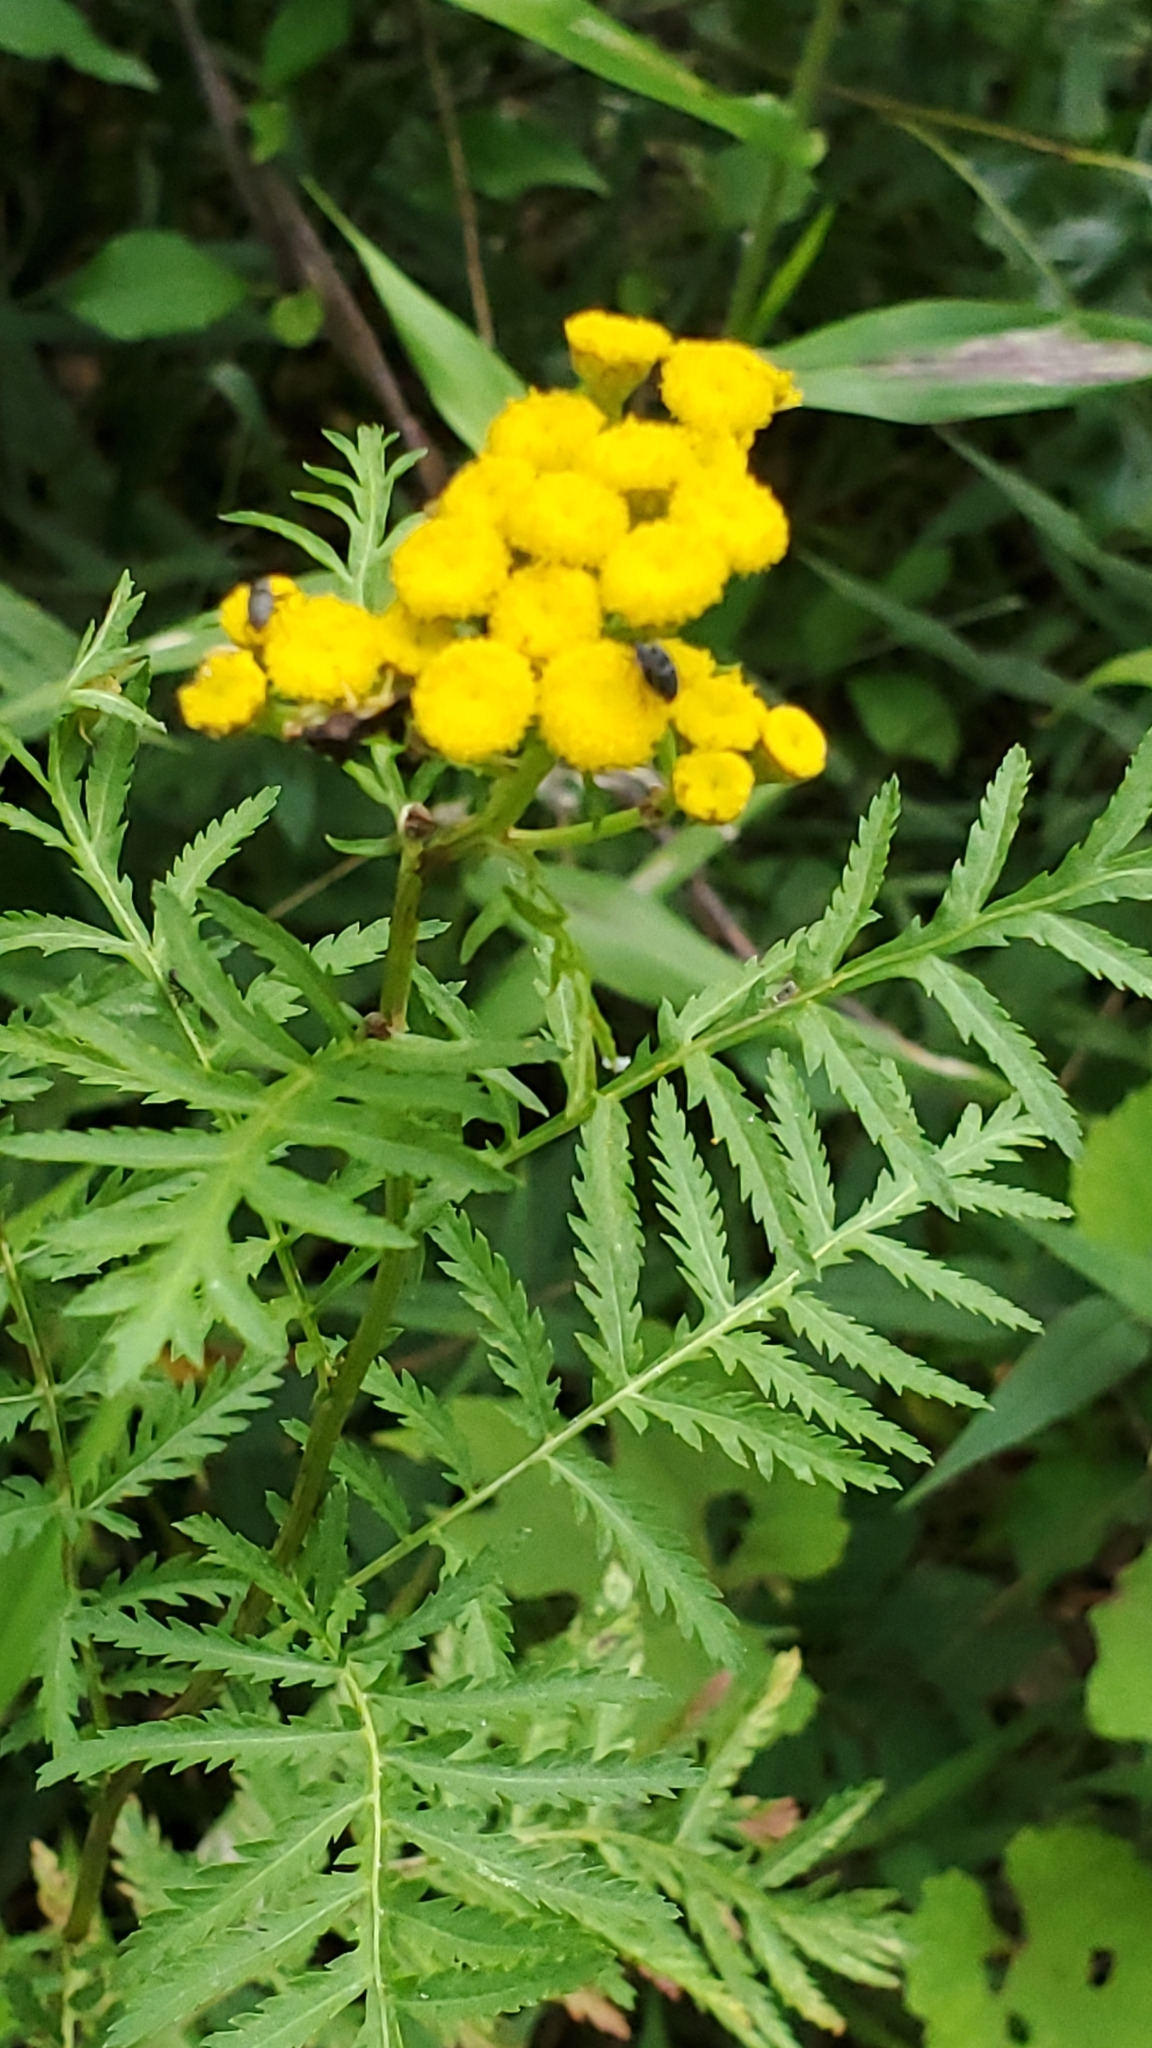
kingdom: Plantae
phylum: Tracheophyta
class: Magnoliopsida
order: Asterales
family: Asteraceae
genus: Tanacetum
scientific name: Tanacetum vulgare
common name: Common tansy
